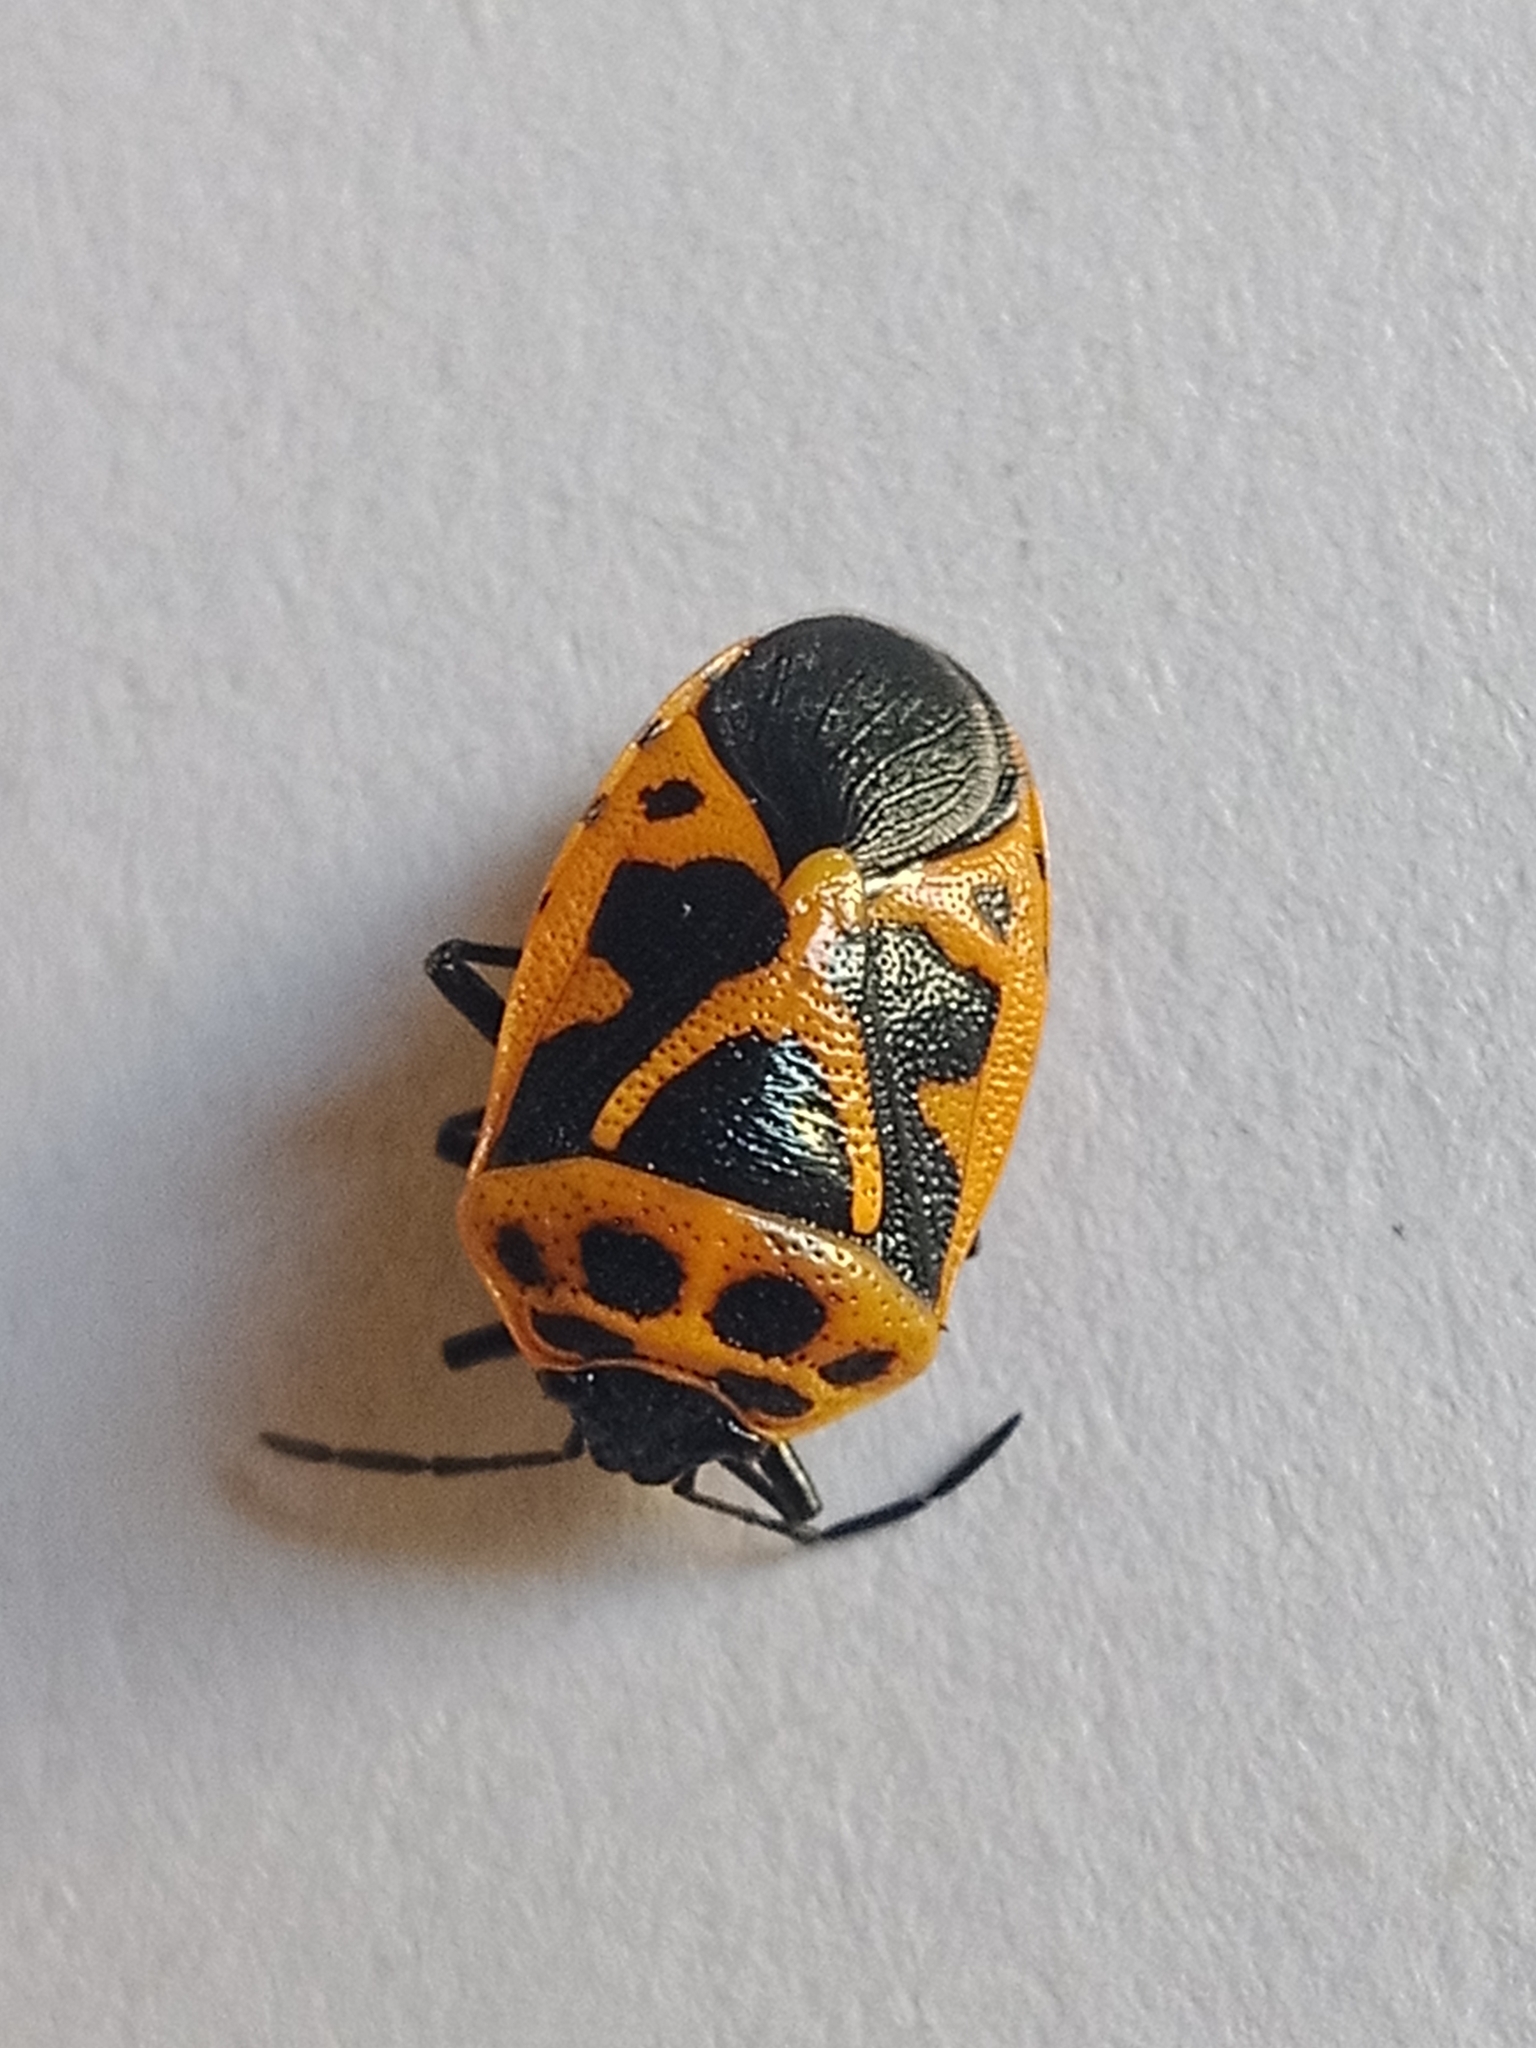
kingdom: Animalia
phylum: Arthropoda
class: Insecta
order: Hemiptera
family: Pentatomidae
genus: Eurydema
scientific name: Eurydema dominulus
